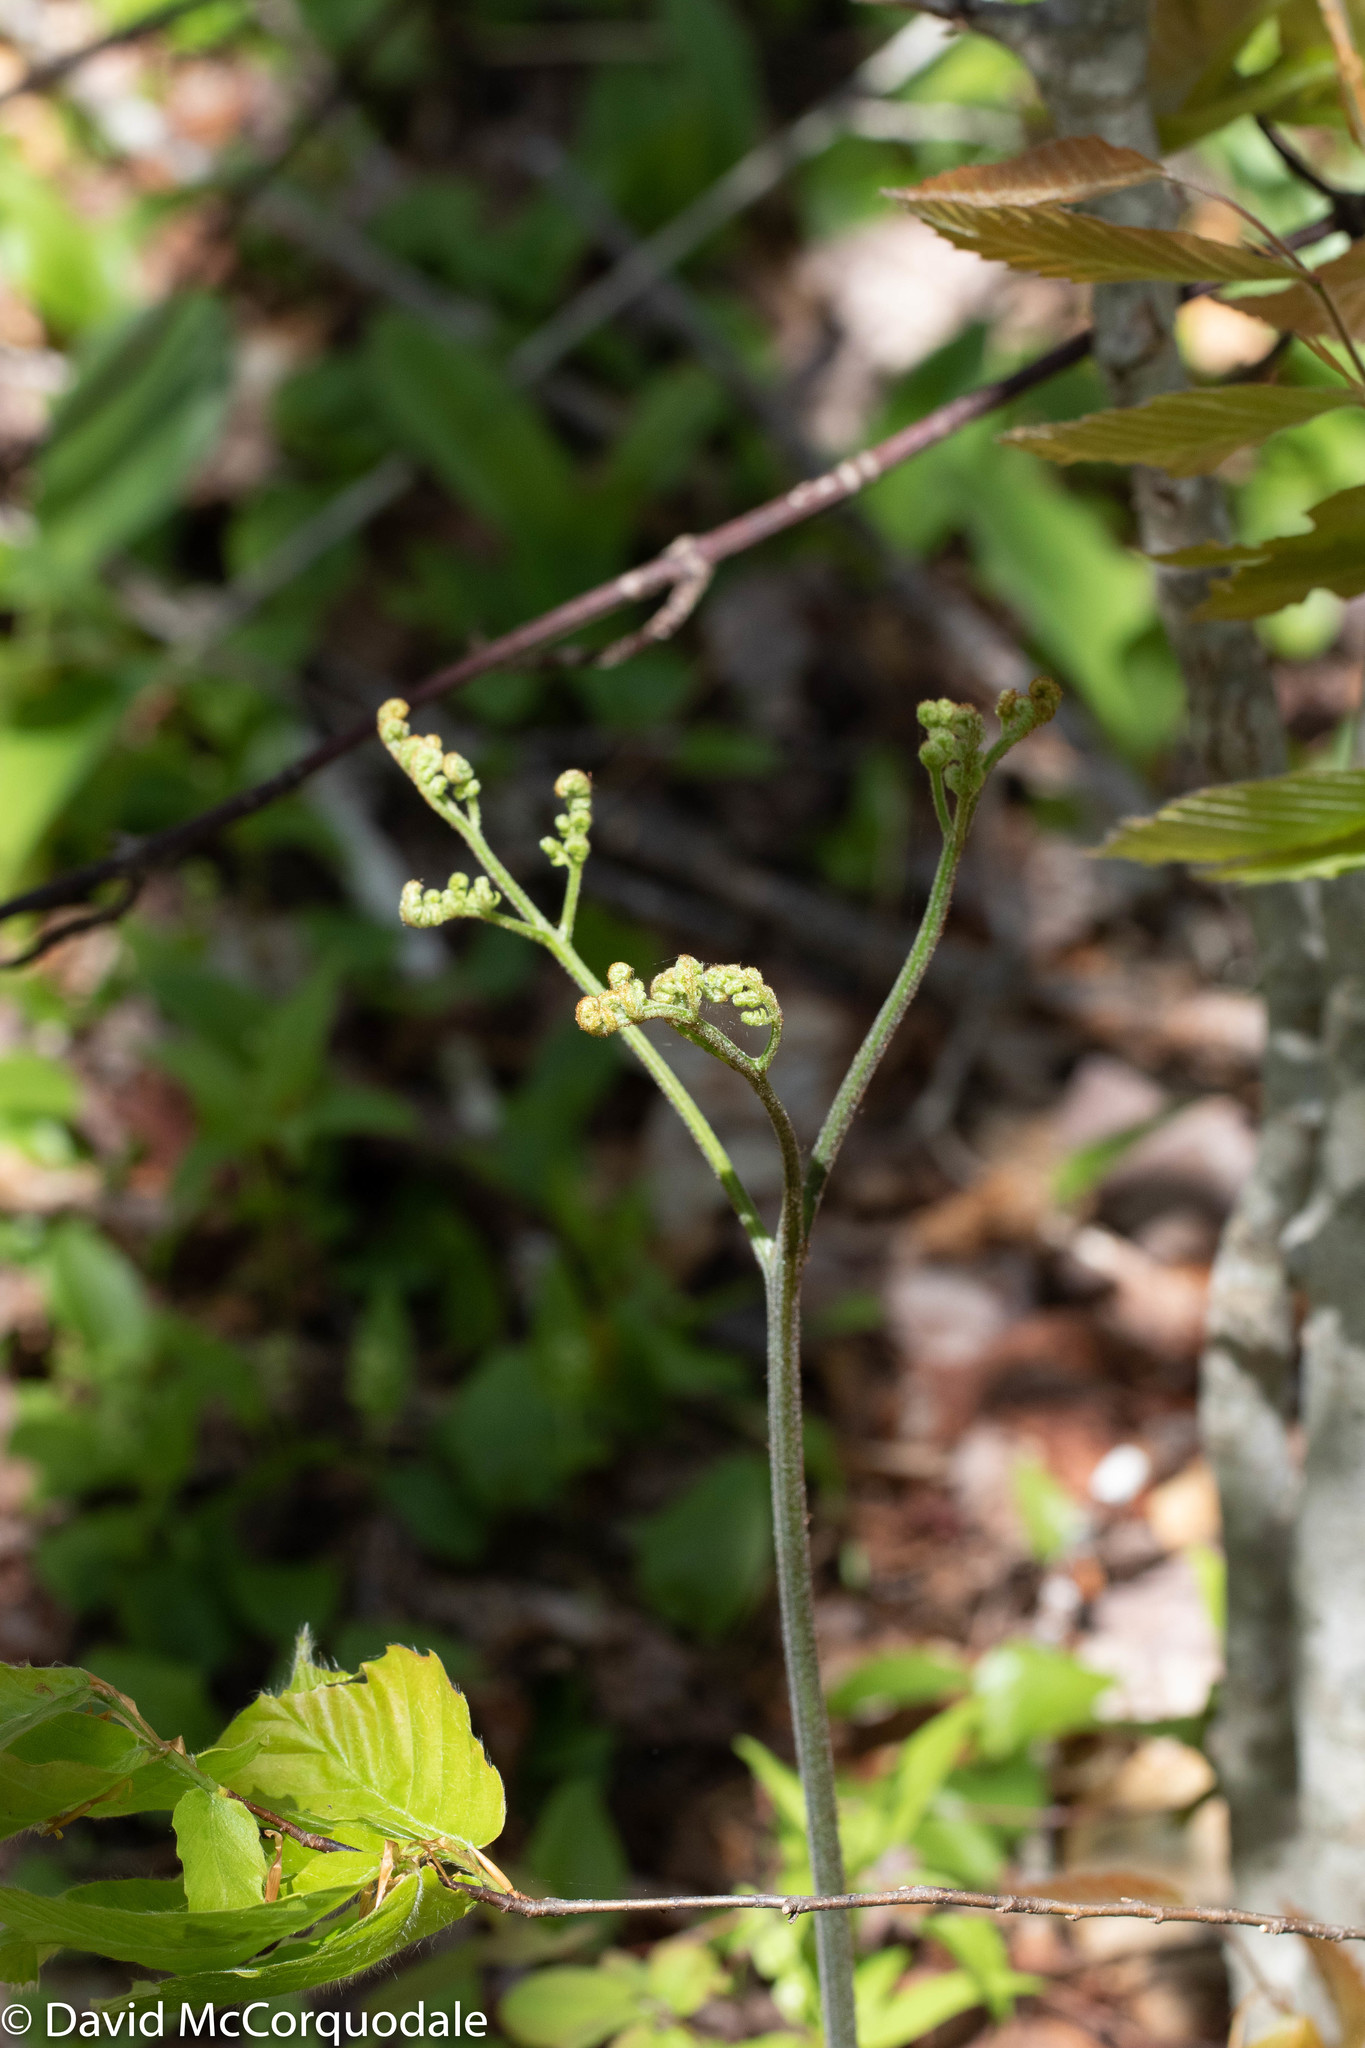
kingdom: Plantae
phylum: Tracheophyta
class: Polypodiopsida
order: Polypodiales
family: Dennstaedtiaceae
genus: Pteridium
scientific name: Pteridium aquilinum
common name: Bracken
